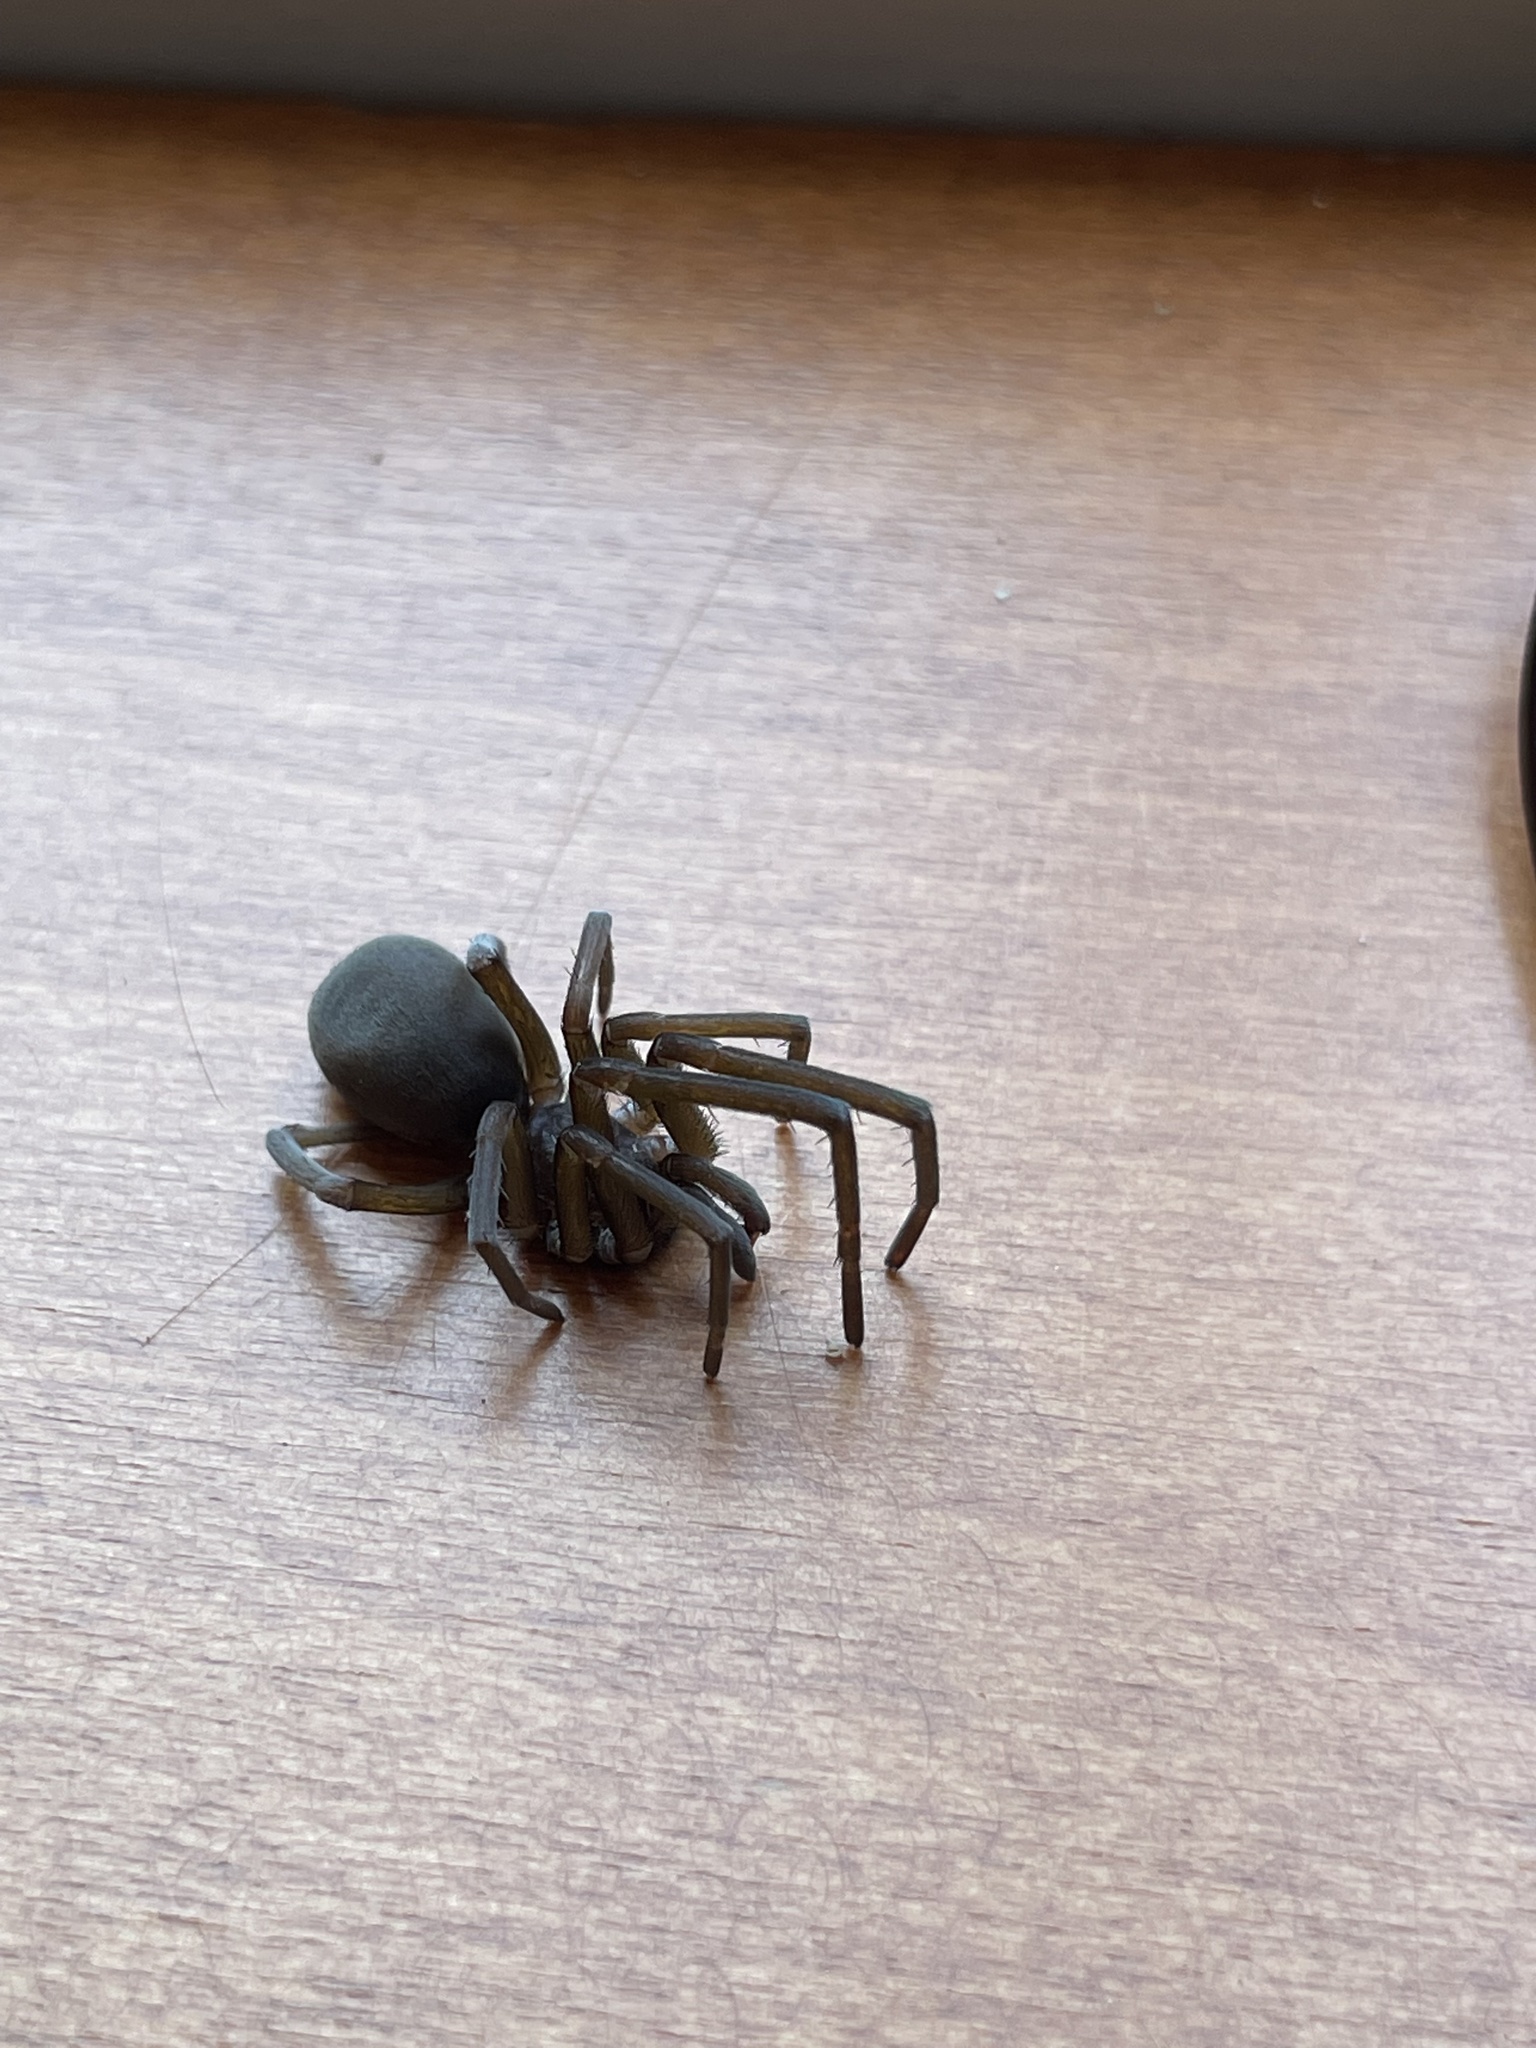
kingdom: Animalia
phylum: Arthropoda
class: Arachnida
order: Araneae
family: Filistatidae
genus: Kukulcania
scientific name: Kukulcania hibernalis
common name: Crevice weaver
